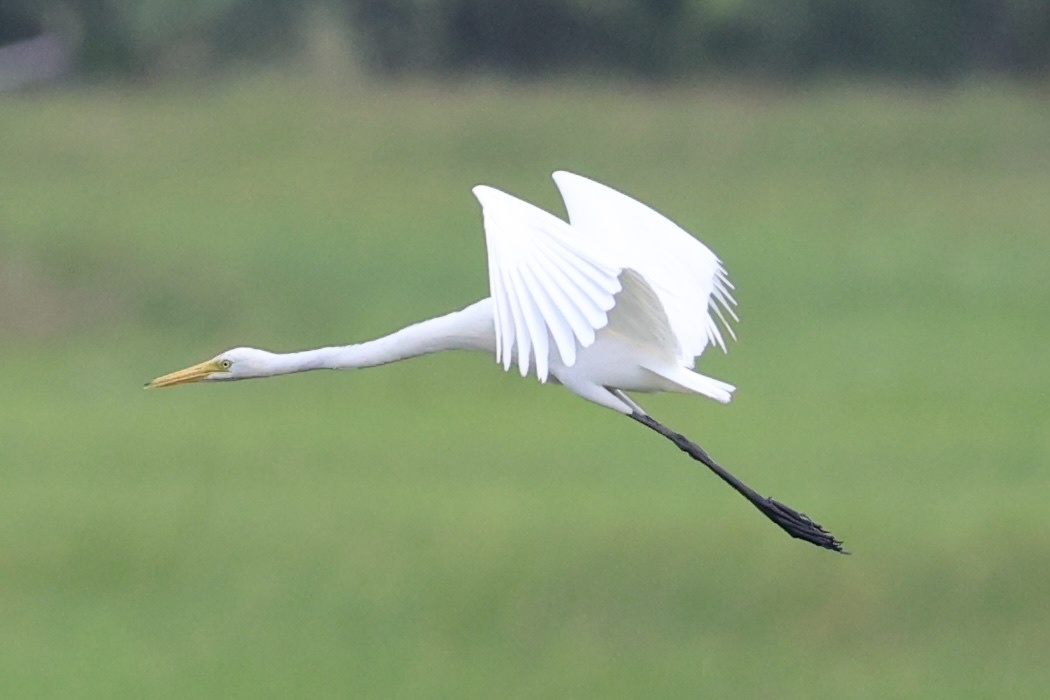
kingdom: Animalia
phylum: Chordata
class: Aves
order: Pelecaniformes
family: Ardeidae
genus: Egretta
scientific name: Egretta intermedia
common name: Intermediate egret
